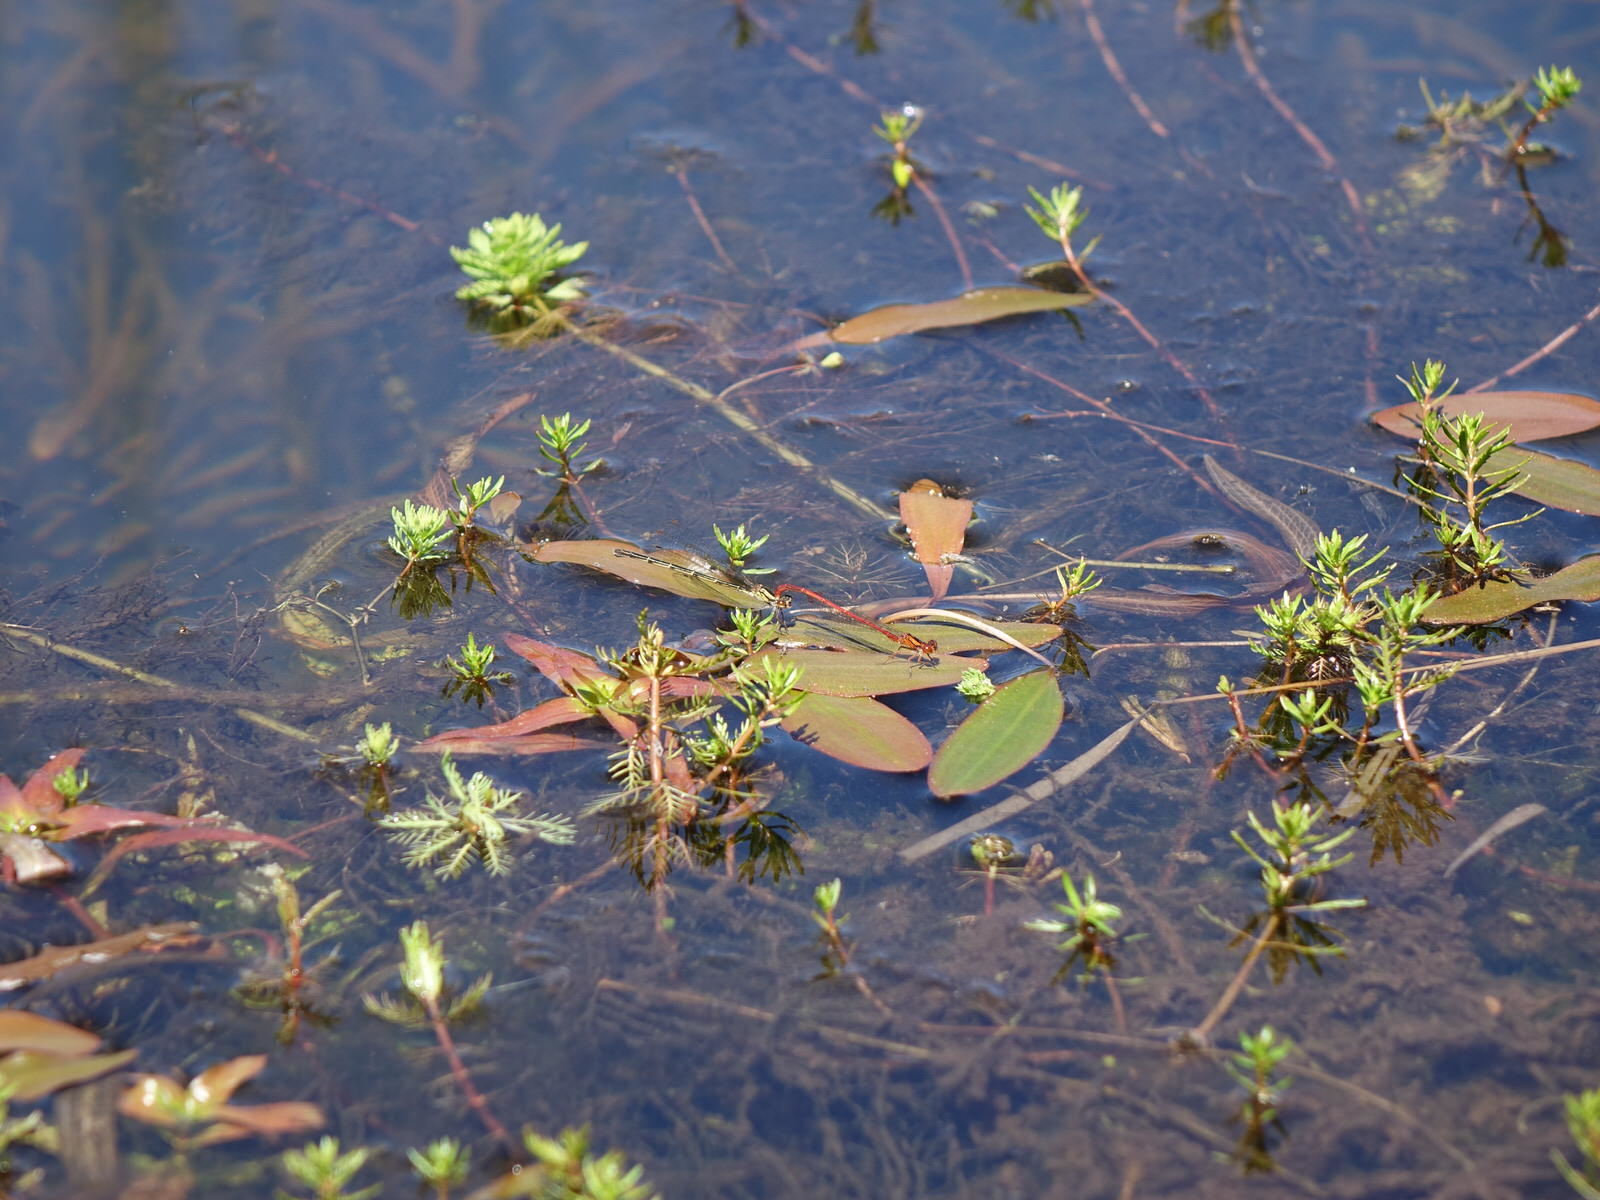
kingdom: Animalia
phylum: Arthropoda
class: Insecta
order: Odonata
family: Coenagrionidae
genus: Xanthocnemis
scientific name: Xanthocnemis zealandica
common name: Common redcoat damselfly
